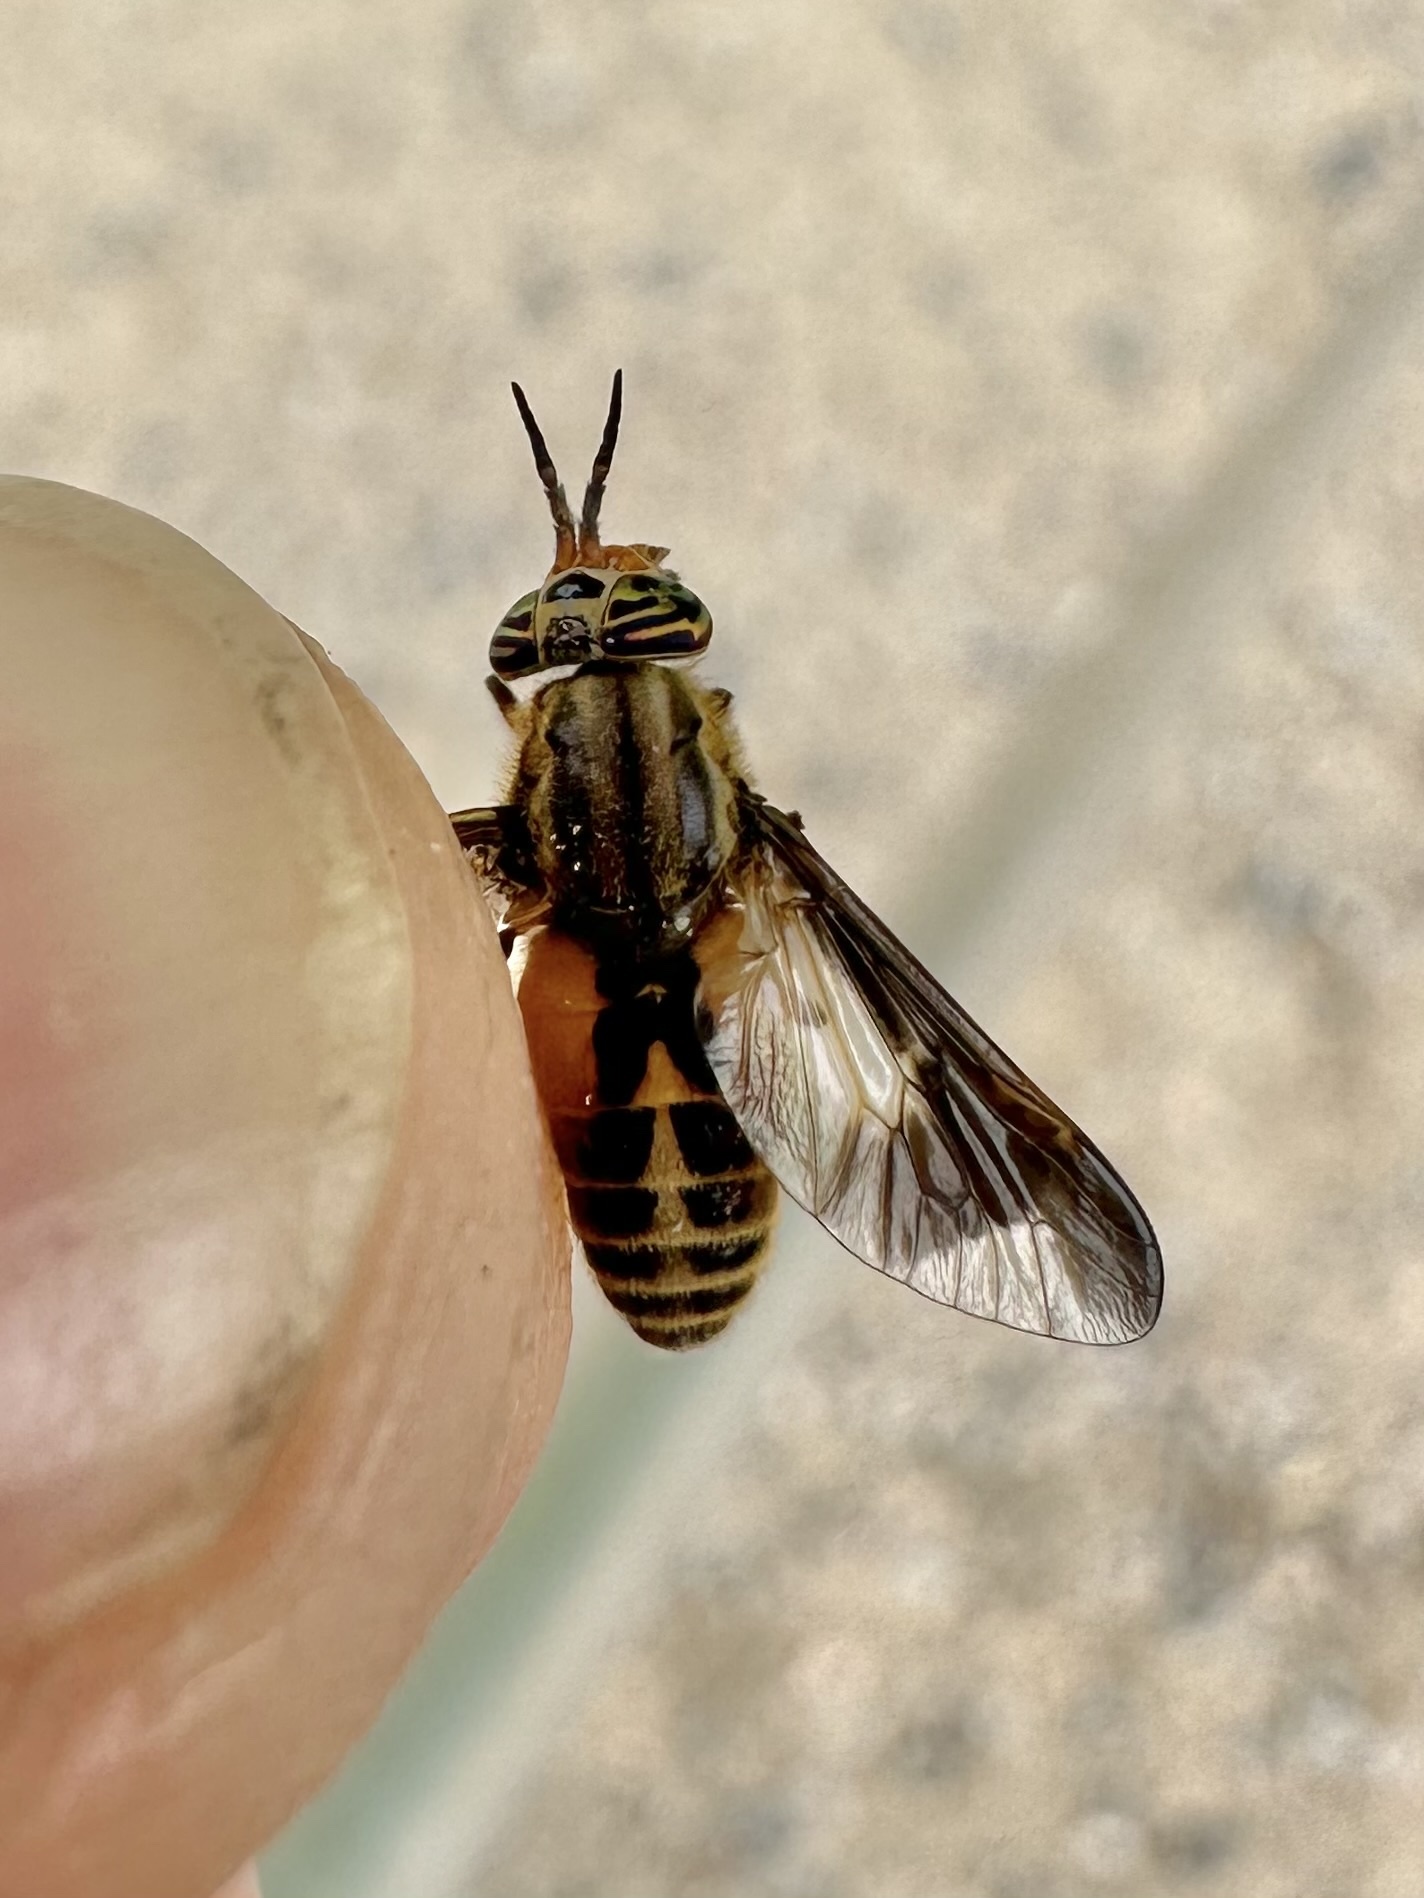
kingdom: Animalia
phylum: Arthropoda
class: Insecta
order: Diptera
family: Tabanidae
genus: Chrysops
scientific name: Chrysops indus
